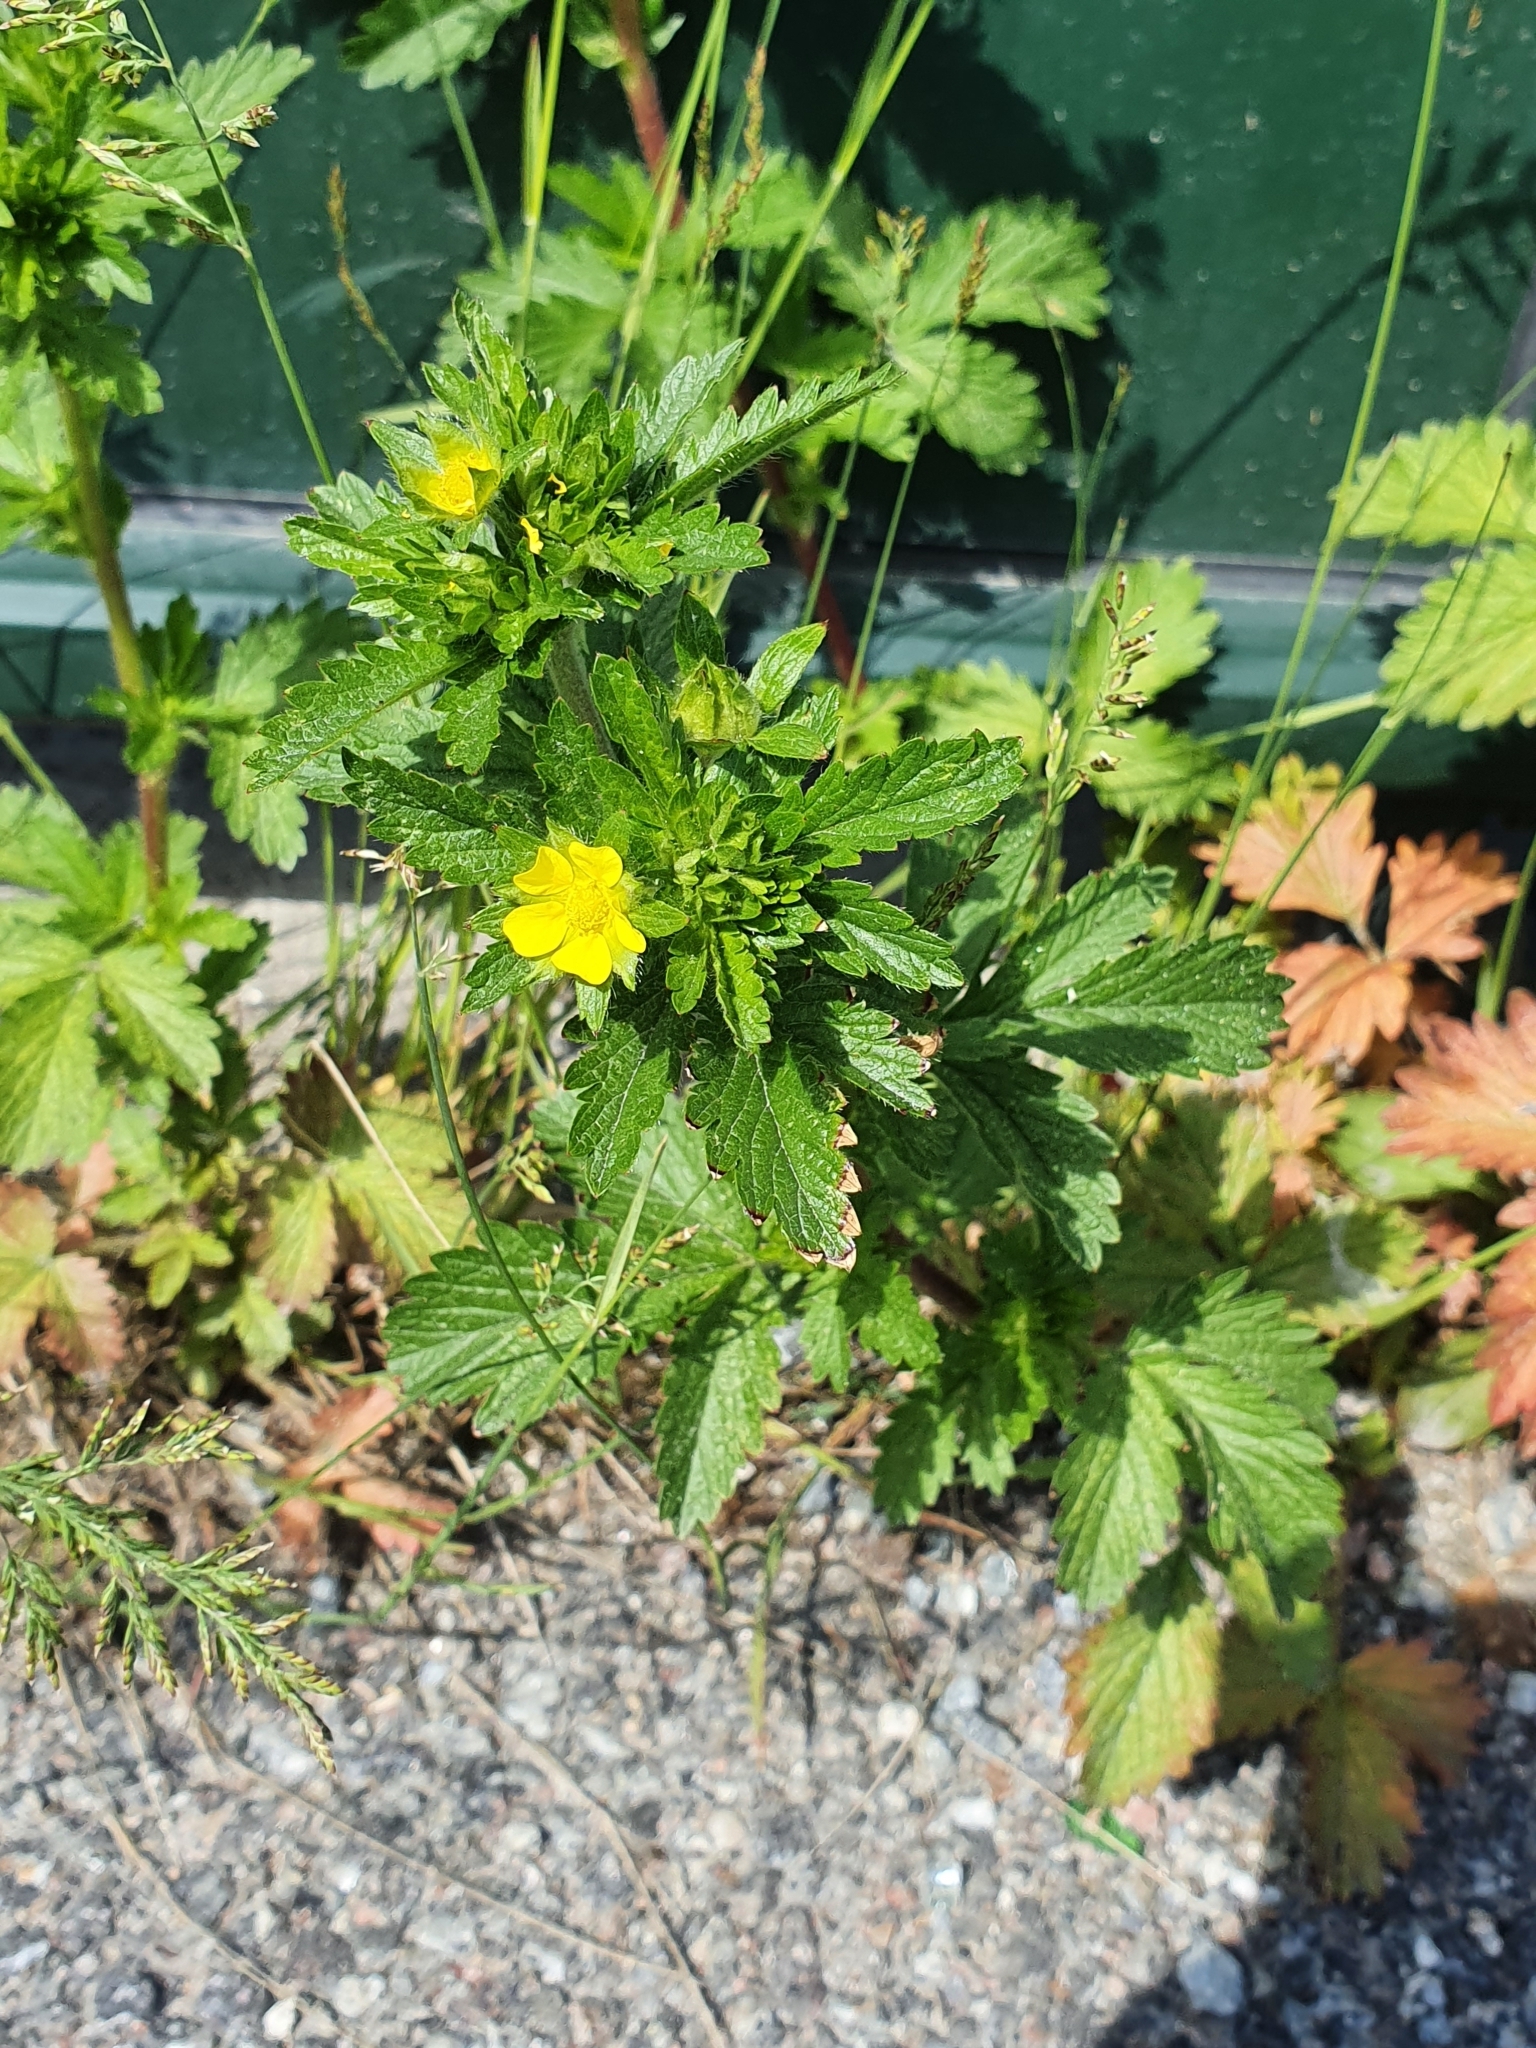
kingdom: Plantae
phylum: Tracheophyta
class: Magnoliopsida
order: Rosales
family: Rosaceae
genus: Potentilla
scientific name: Potentilla norvegica
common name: Ternate-leaved cinquefoil
